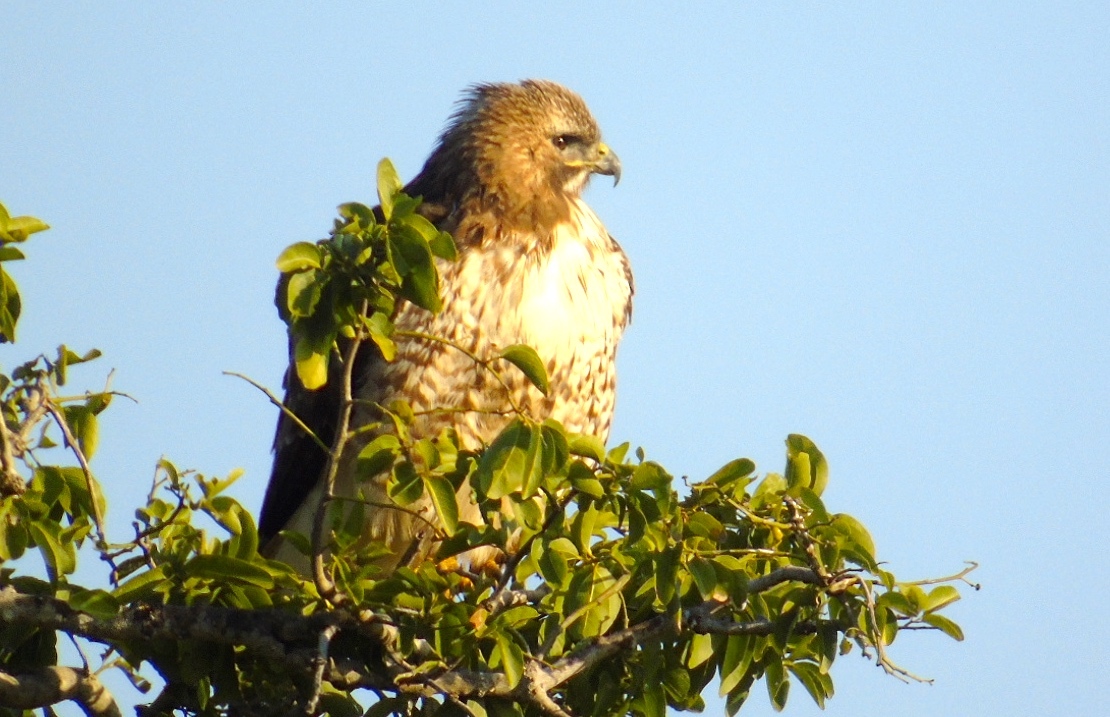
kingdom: Animalia
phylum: Chordata
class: Aves
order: Accipitriformes
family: Accipitridae
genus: Buteo
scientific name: Buteo jamaicensis
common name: Red-tailed hawk
